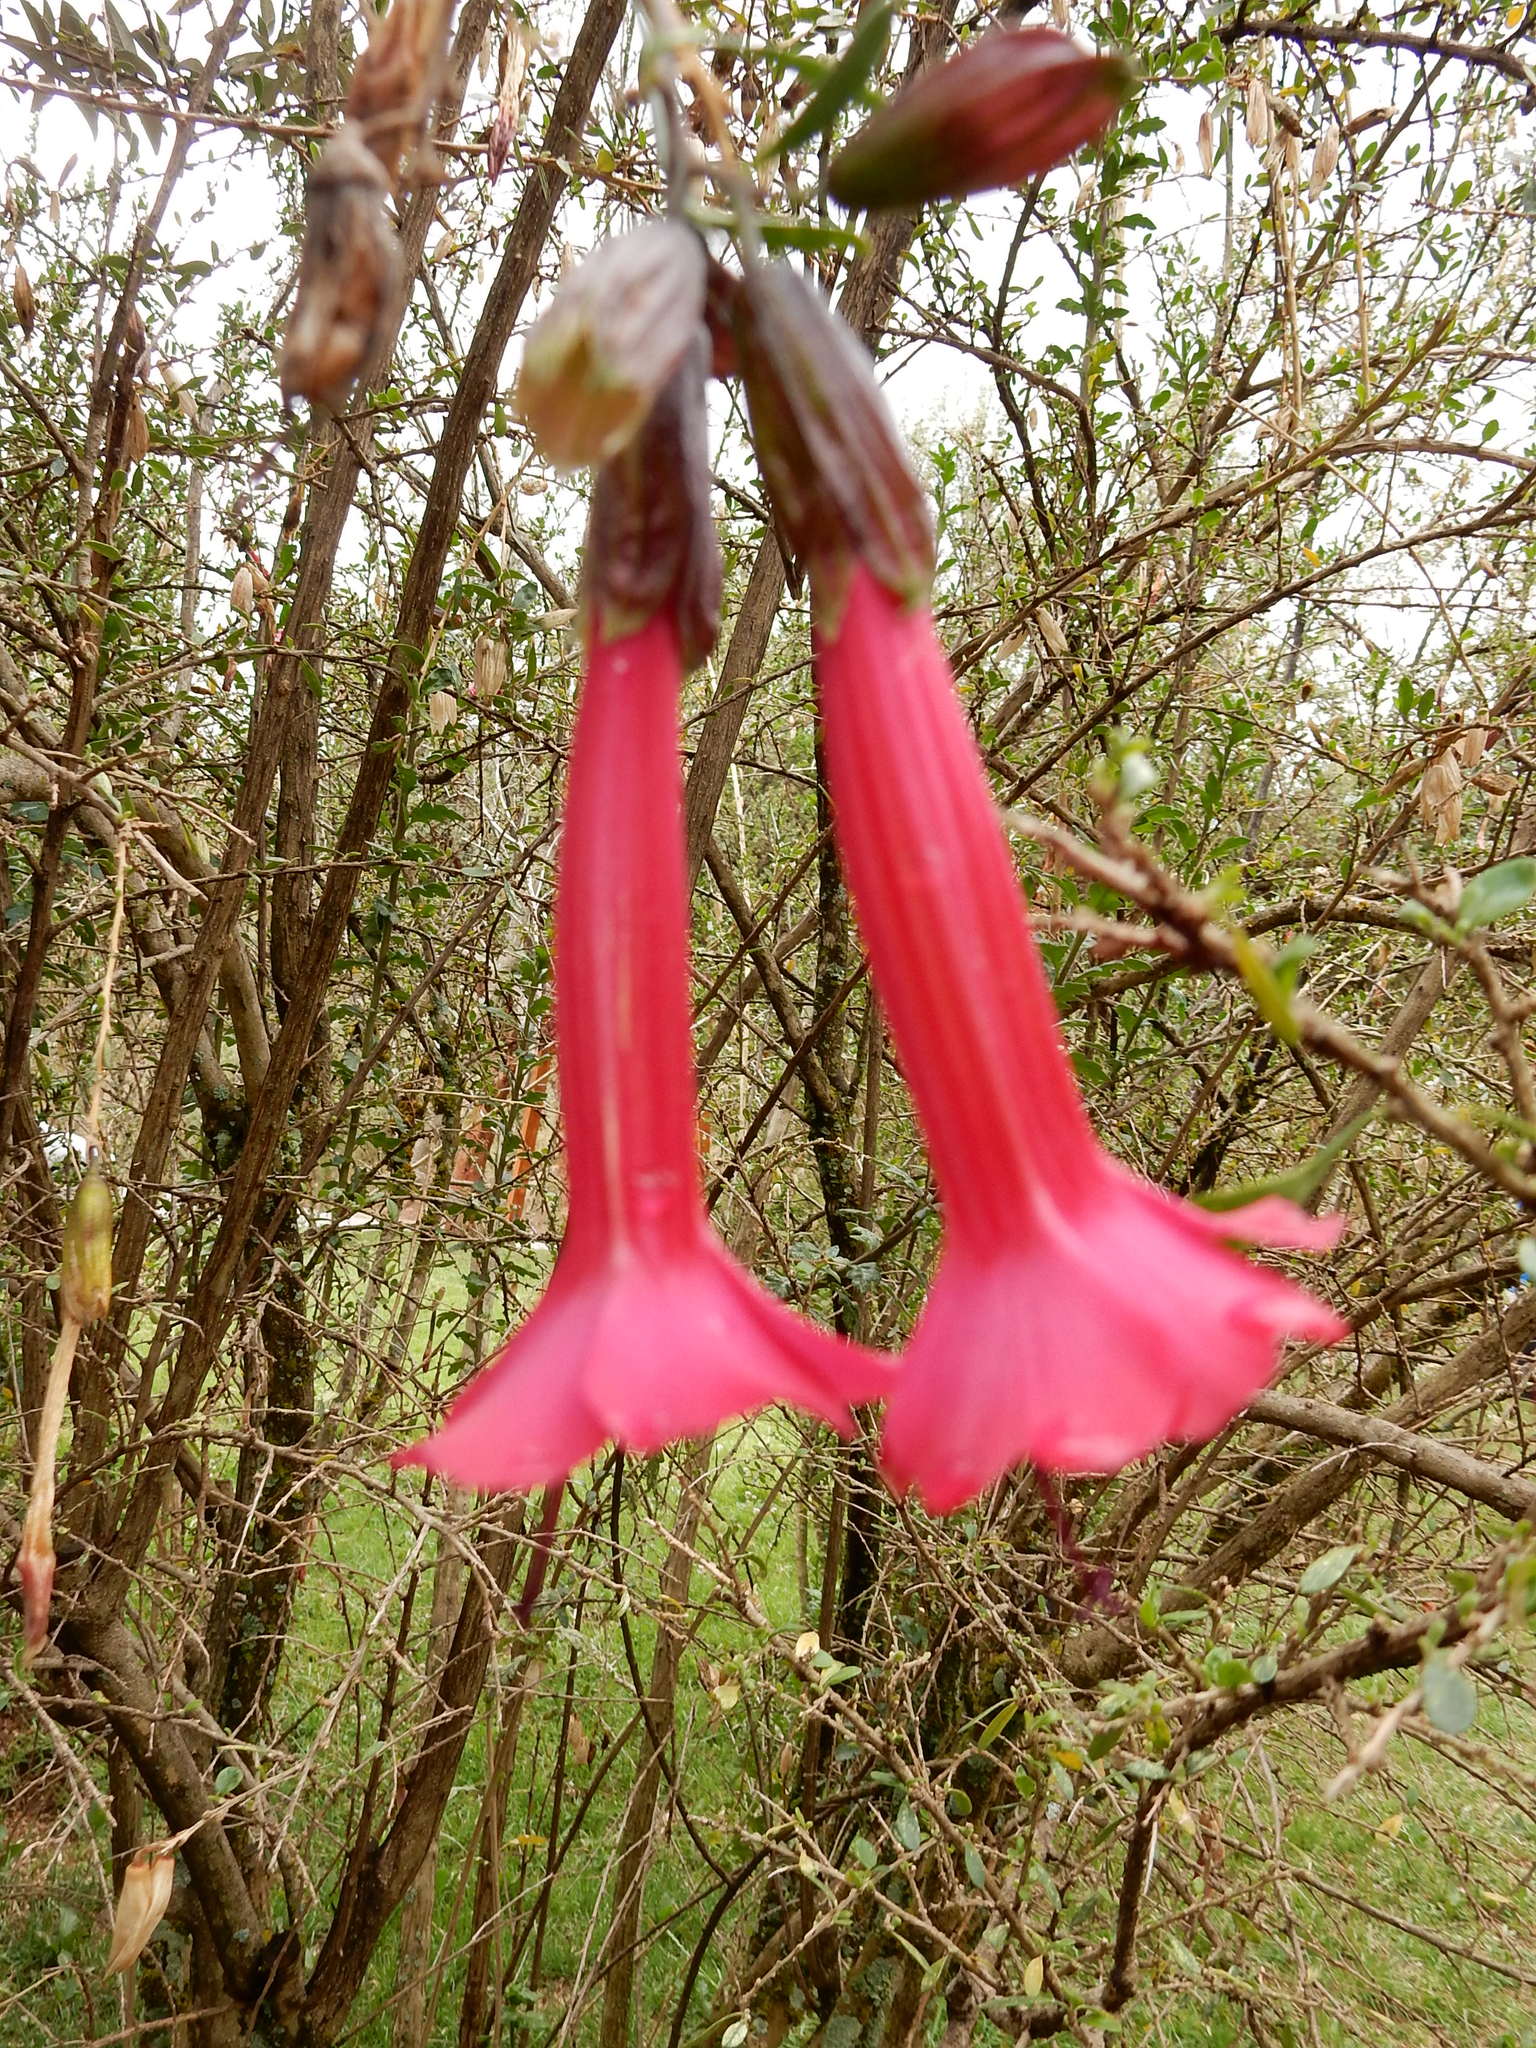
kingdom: Plantae
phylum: Tracheophyta
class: Magnoliopsida
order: Ericales
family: Polemoniaceae
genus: Cantua
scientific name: Cantua buxifolia
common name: Sacred-flower-of-the-incas
